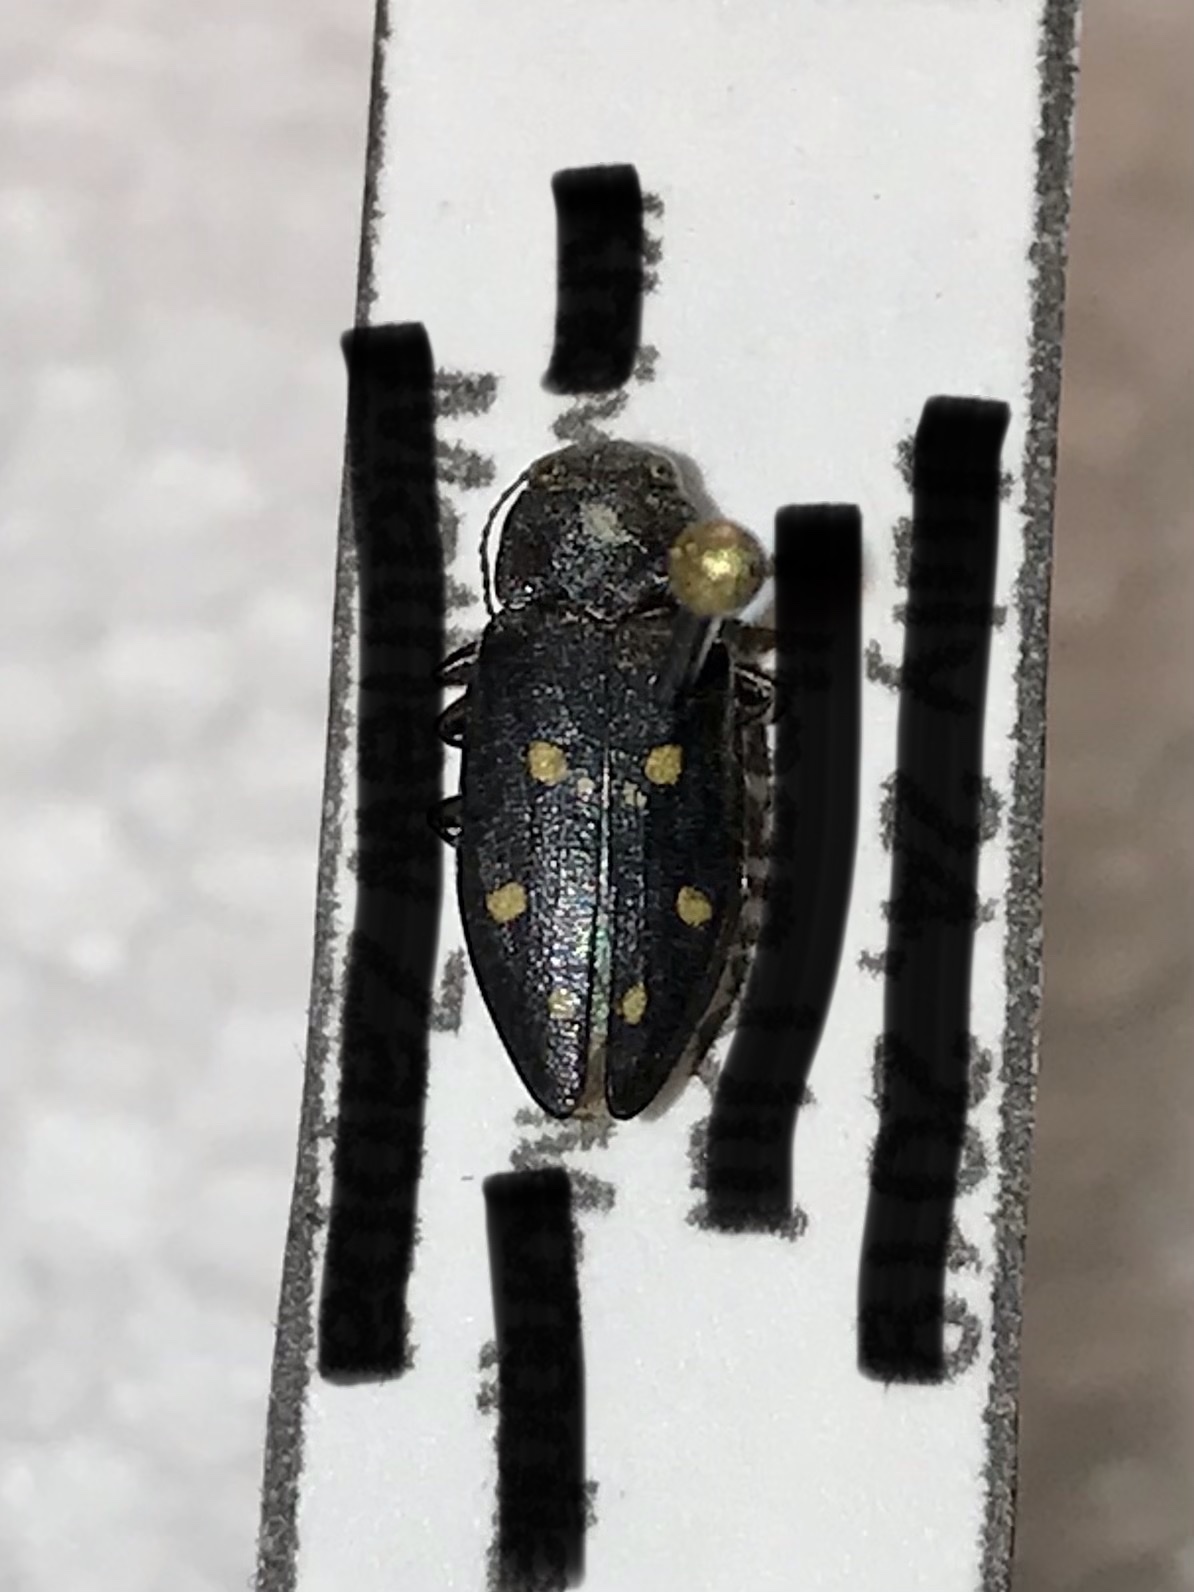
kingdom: Animalia
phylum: Arthropoda
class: Insecta
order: Coleoptera
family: Buprestidae
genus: Phaenops
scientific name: Phaenops guttulata
